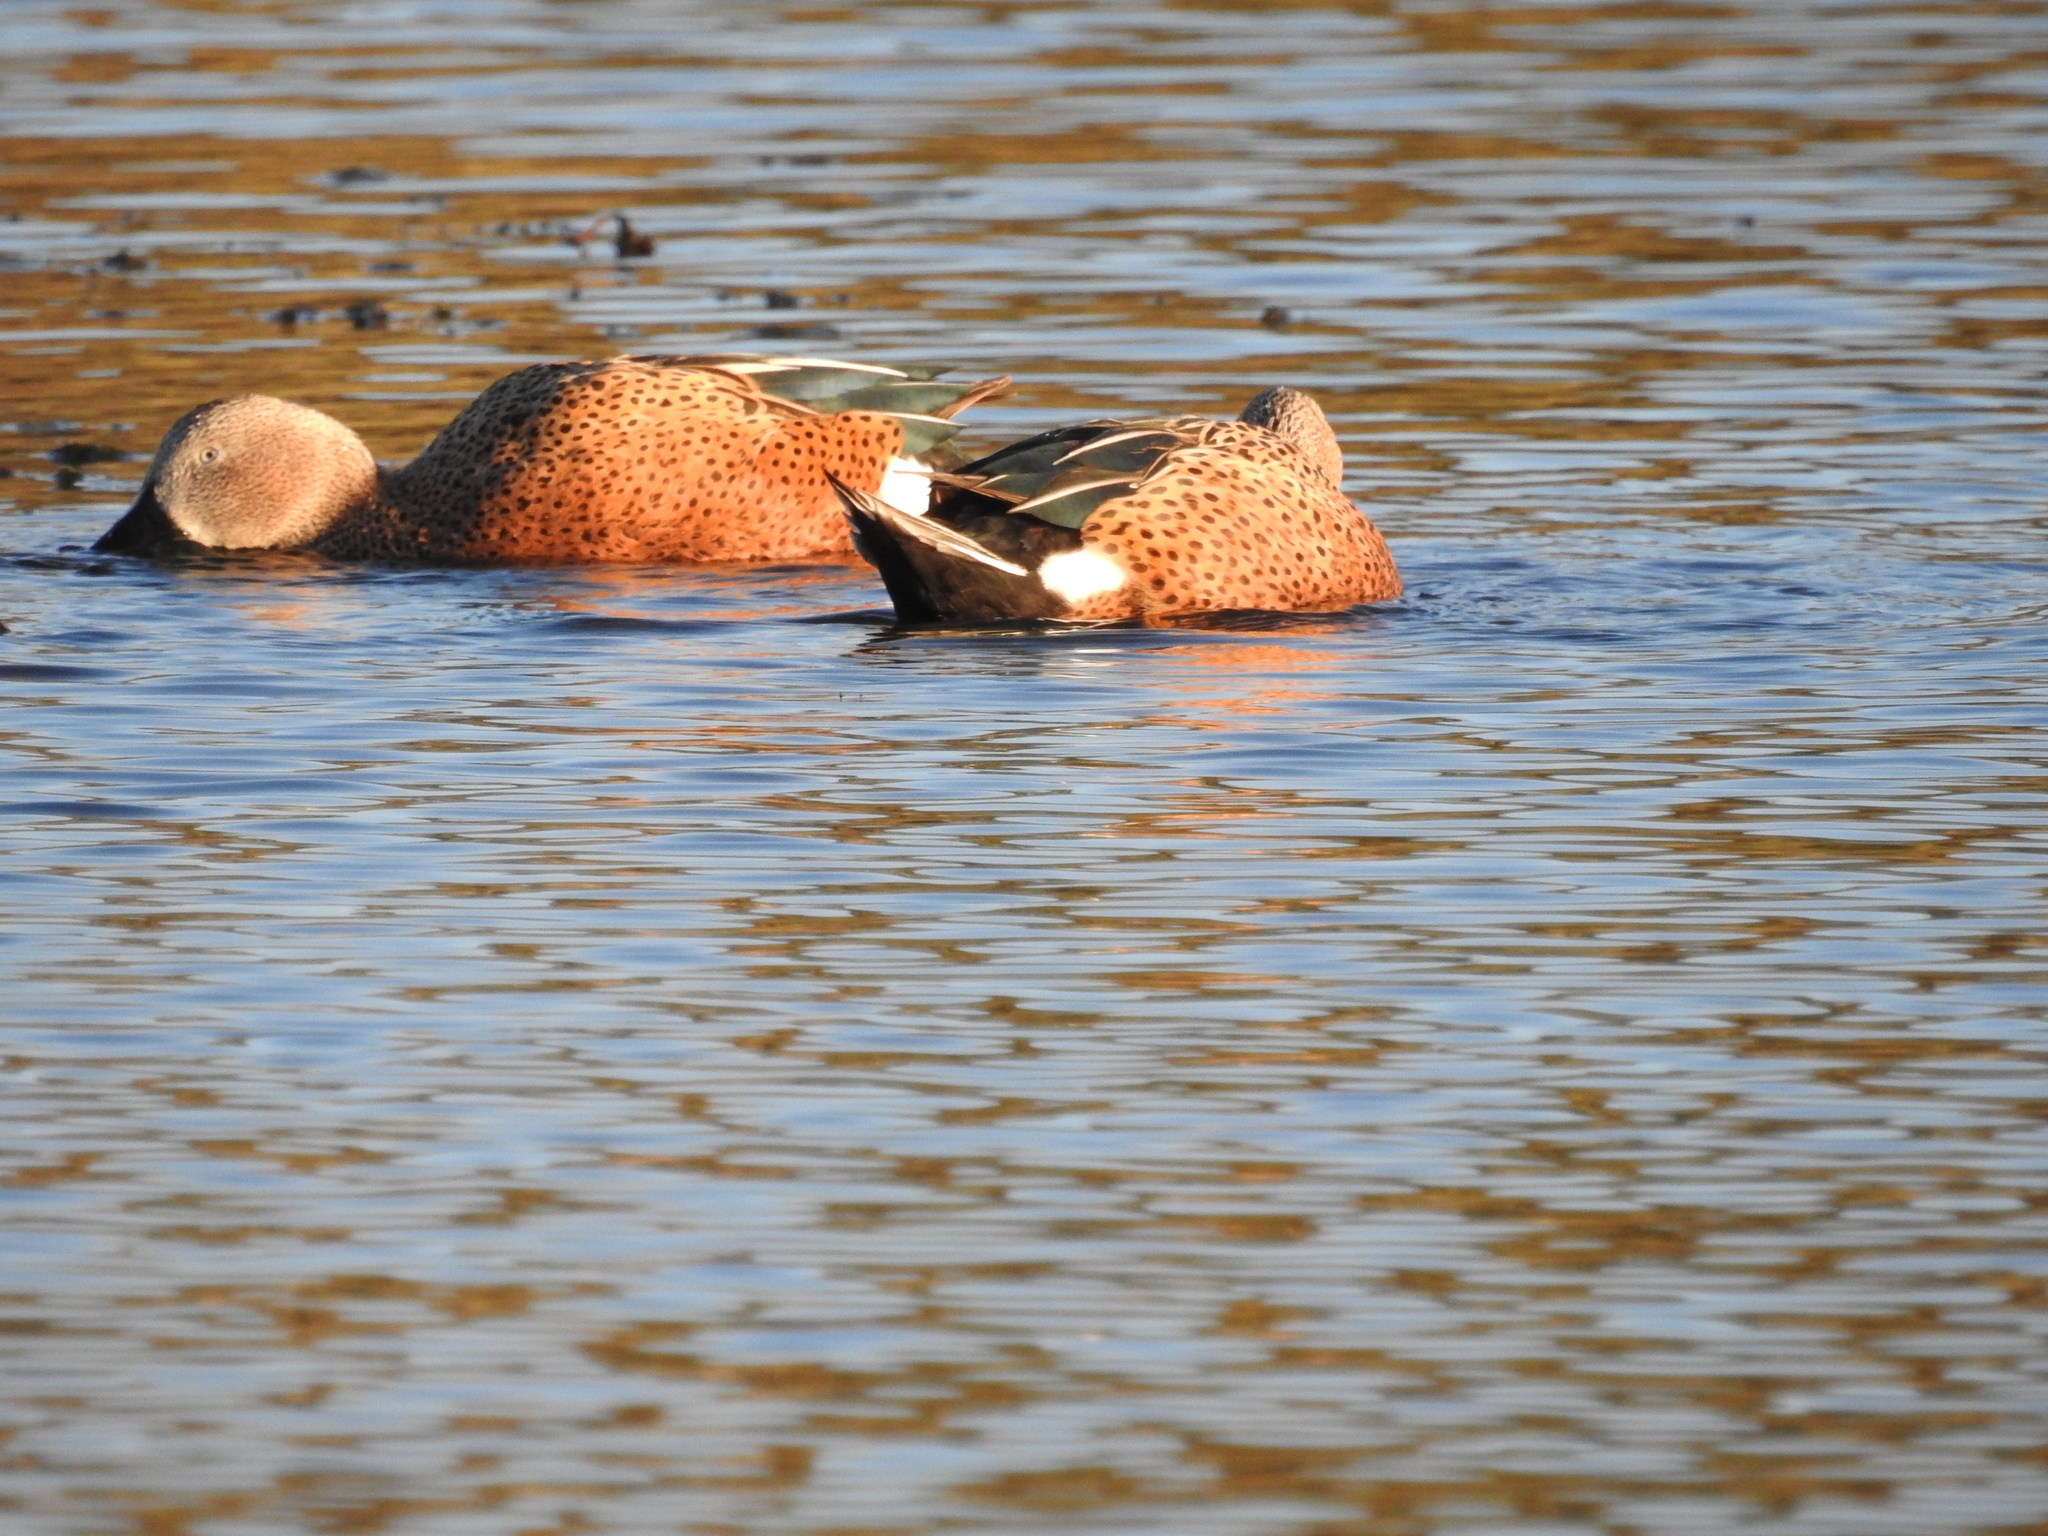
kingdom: Animalia
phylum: Chordata
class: Aves
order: Anseriformes
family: Anatidae
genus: Spatula
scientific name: Spatula platalea
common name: Red shoveler
